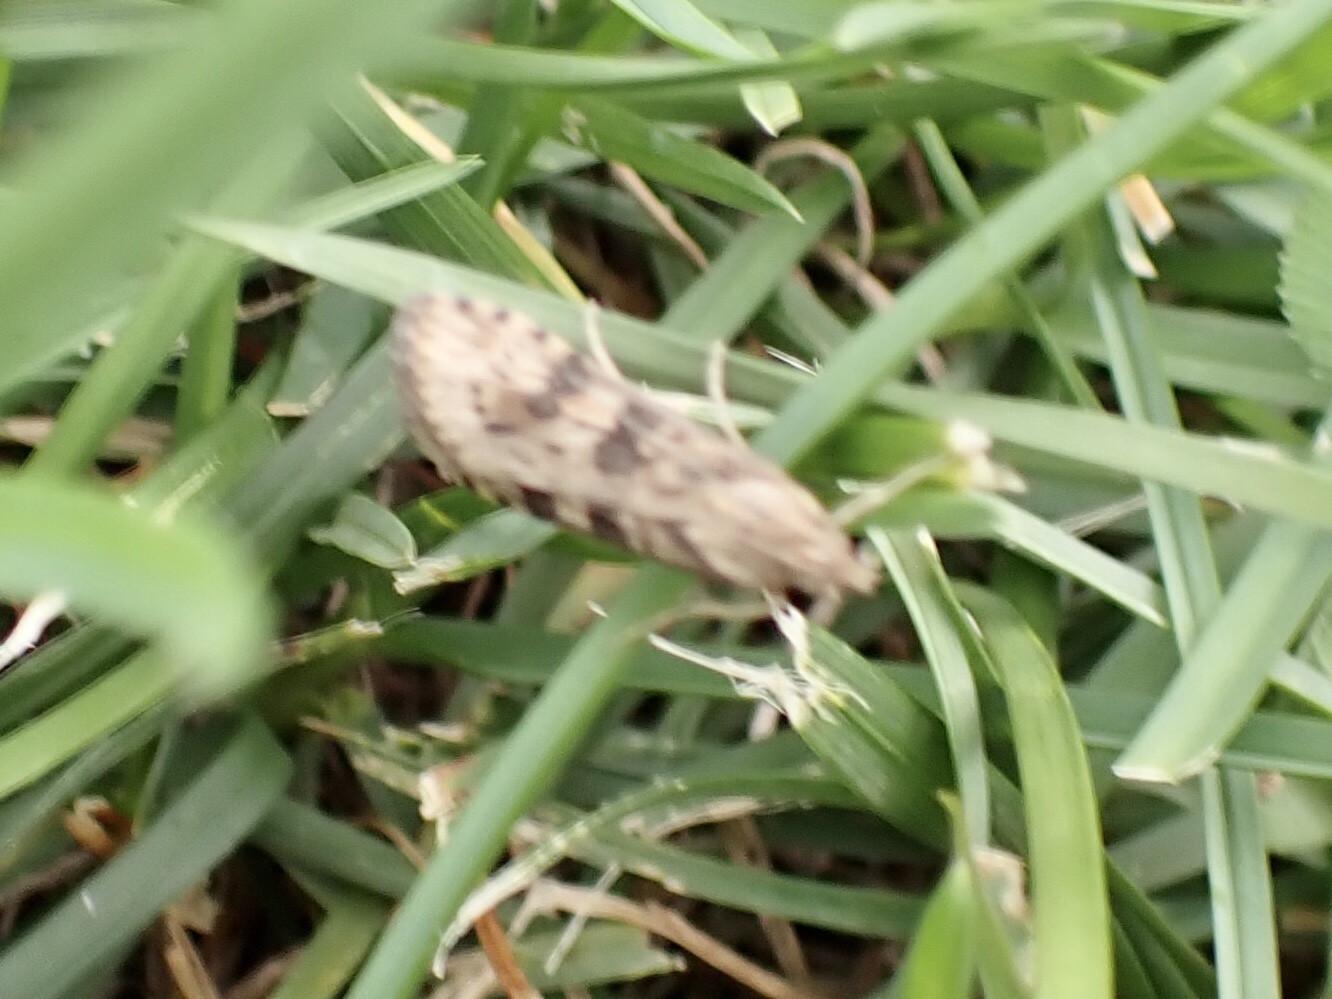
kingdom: Animalia
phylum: Arthropoda
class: Insecta
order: Lepidoptera
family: Crambidae
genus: Nomophila
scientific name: Nomophila nearctica
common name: American rush veneer
